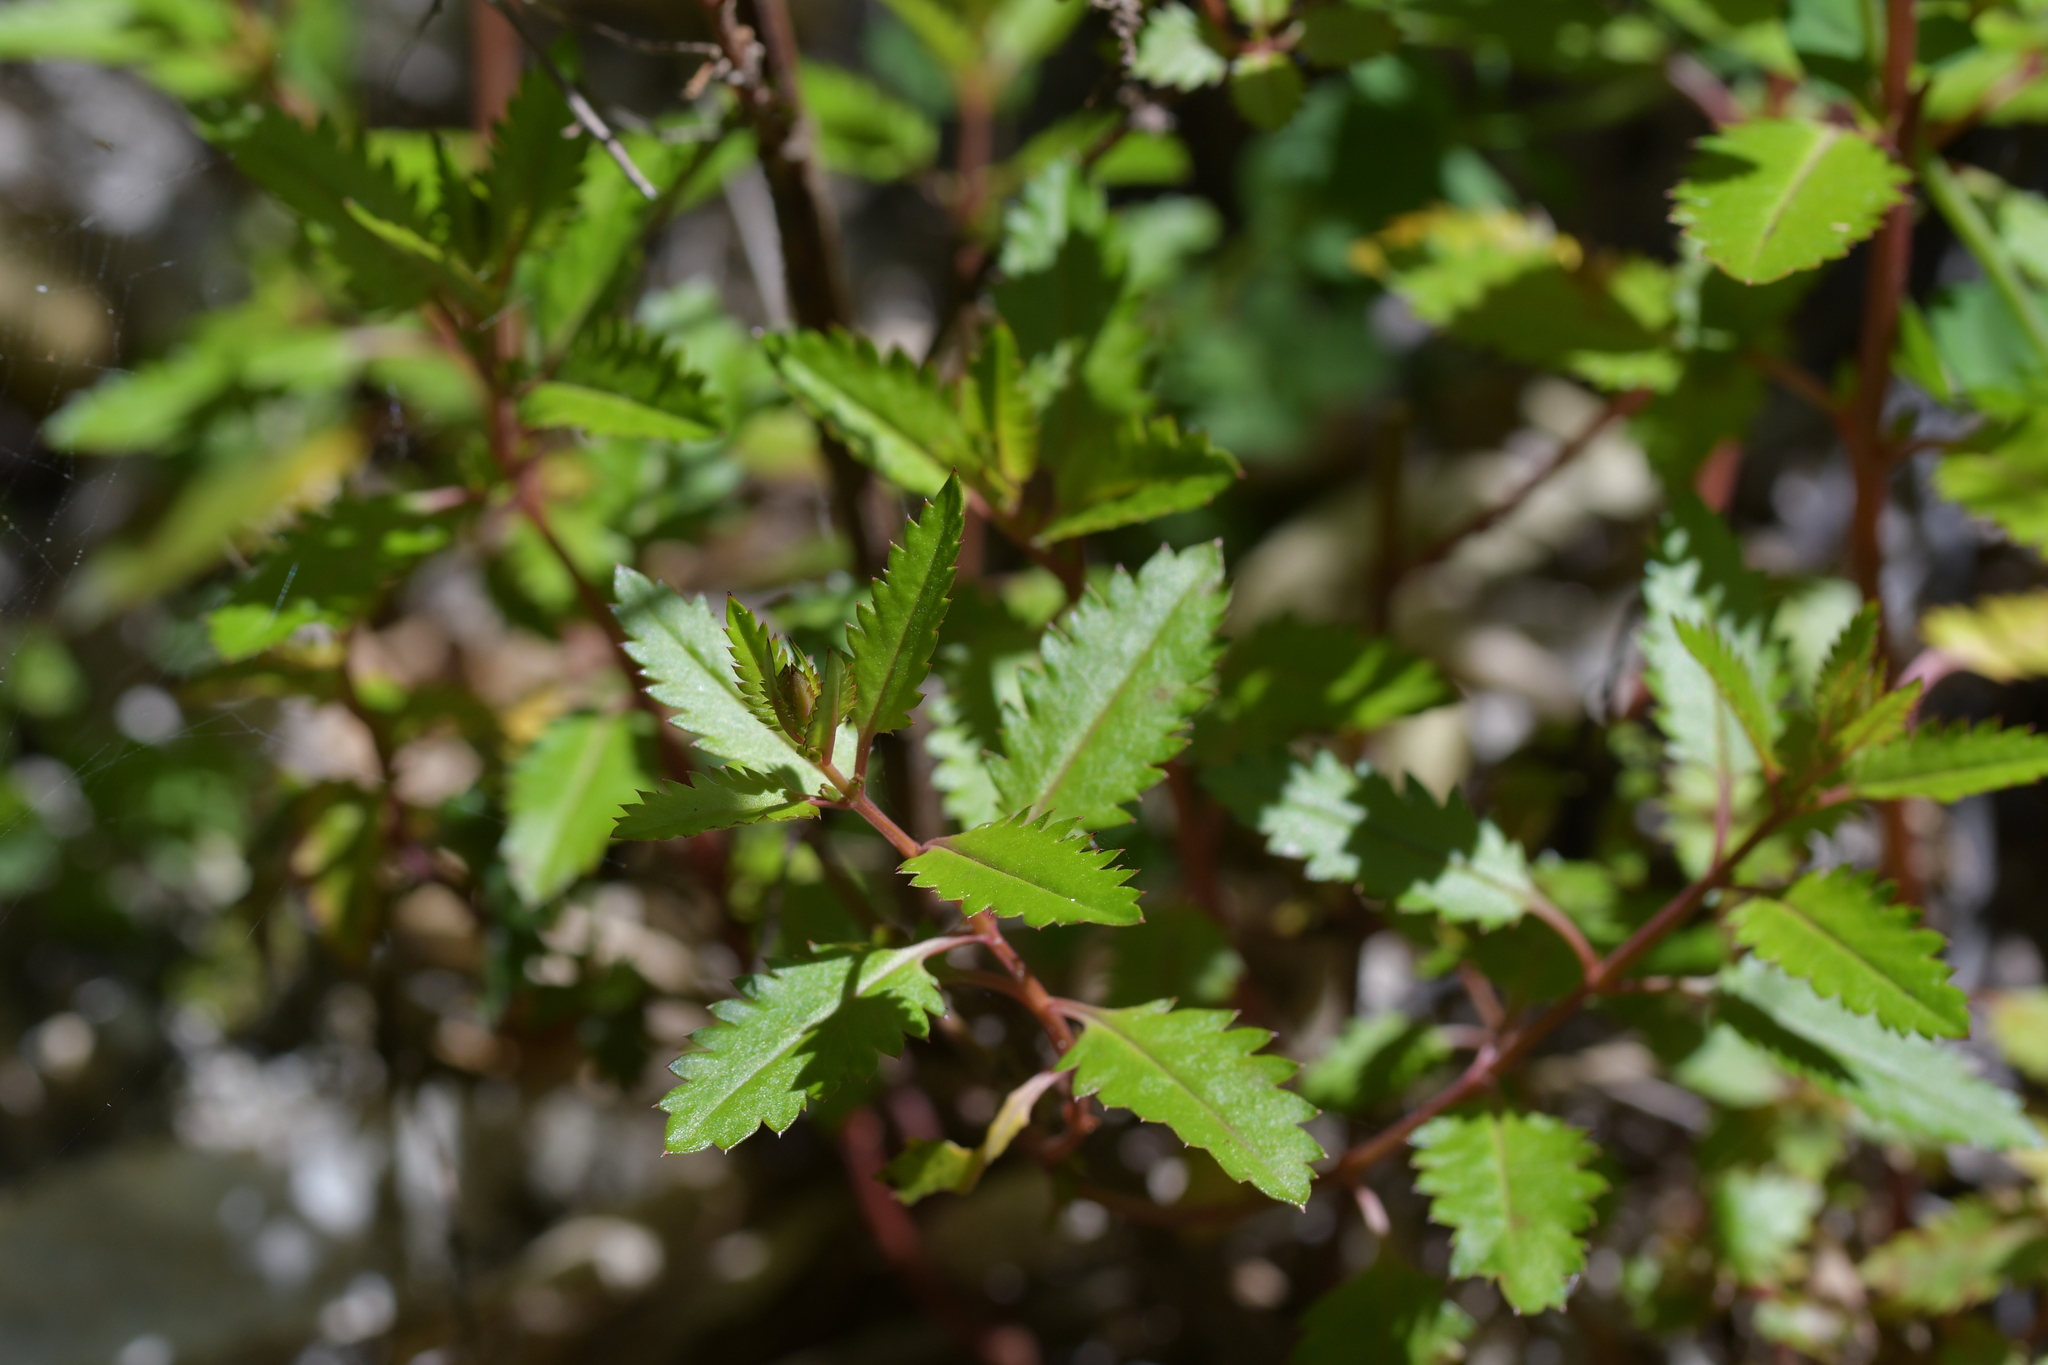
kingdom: Plantae
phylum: Tracheophyta
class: Magnoliopsida
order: Saxifragales
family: Haloragaceae
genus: Haloragis
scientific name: Haloragis erecta
